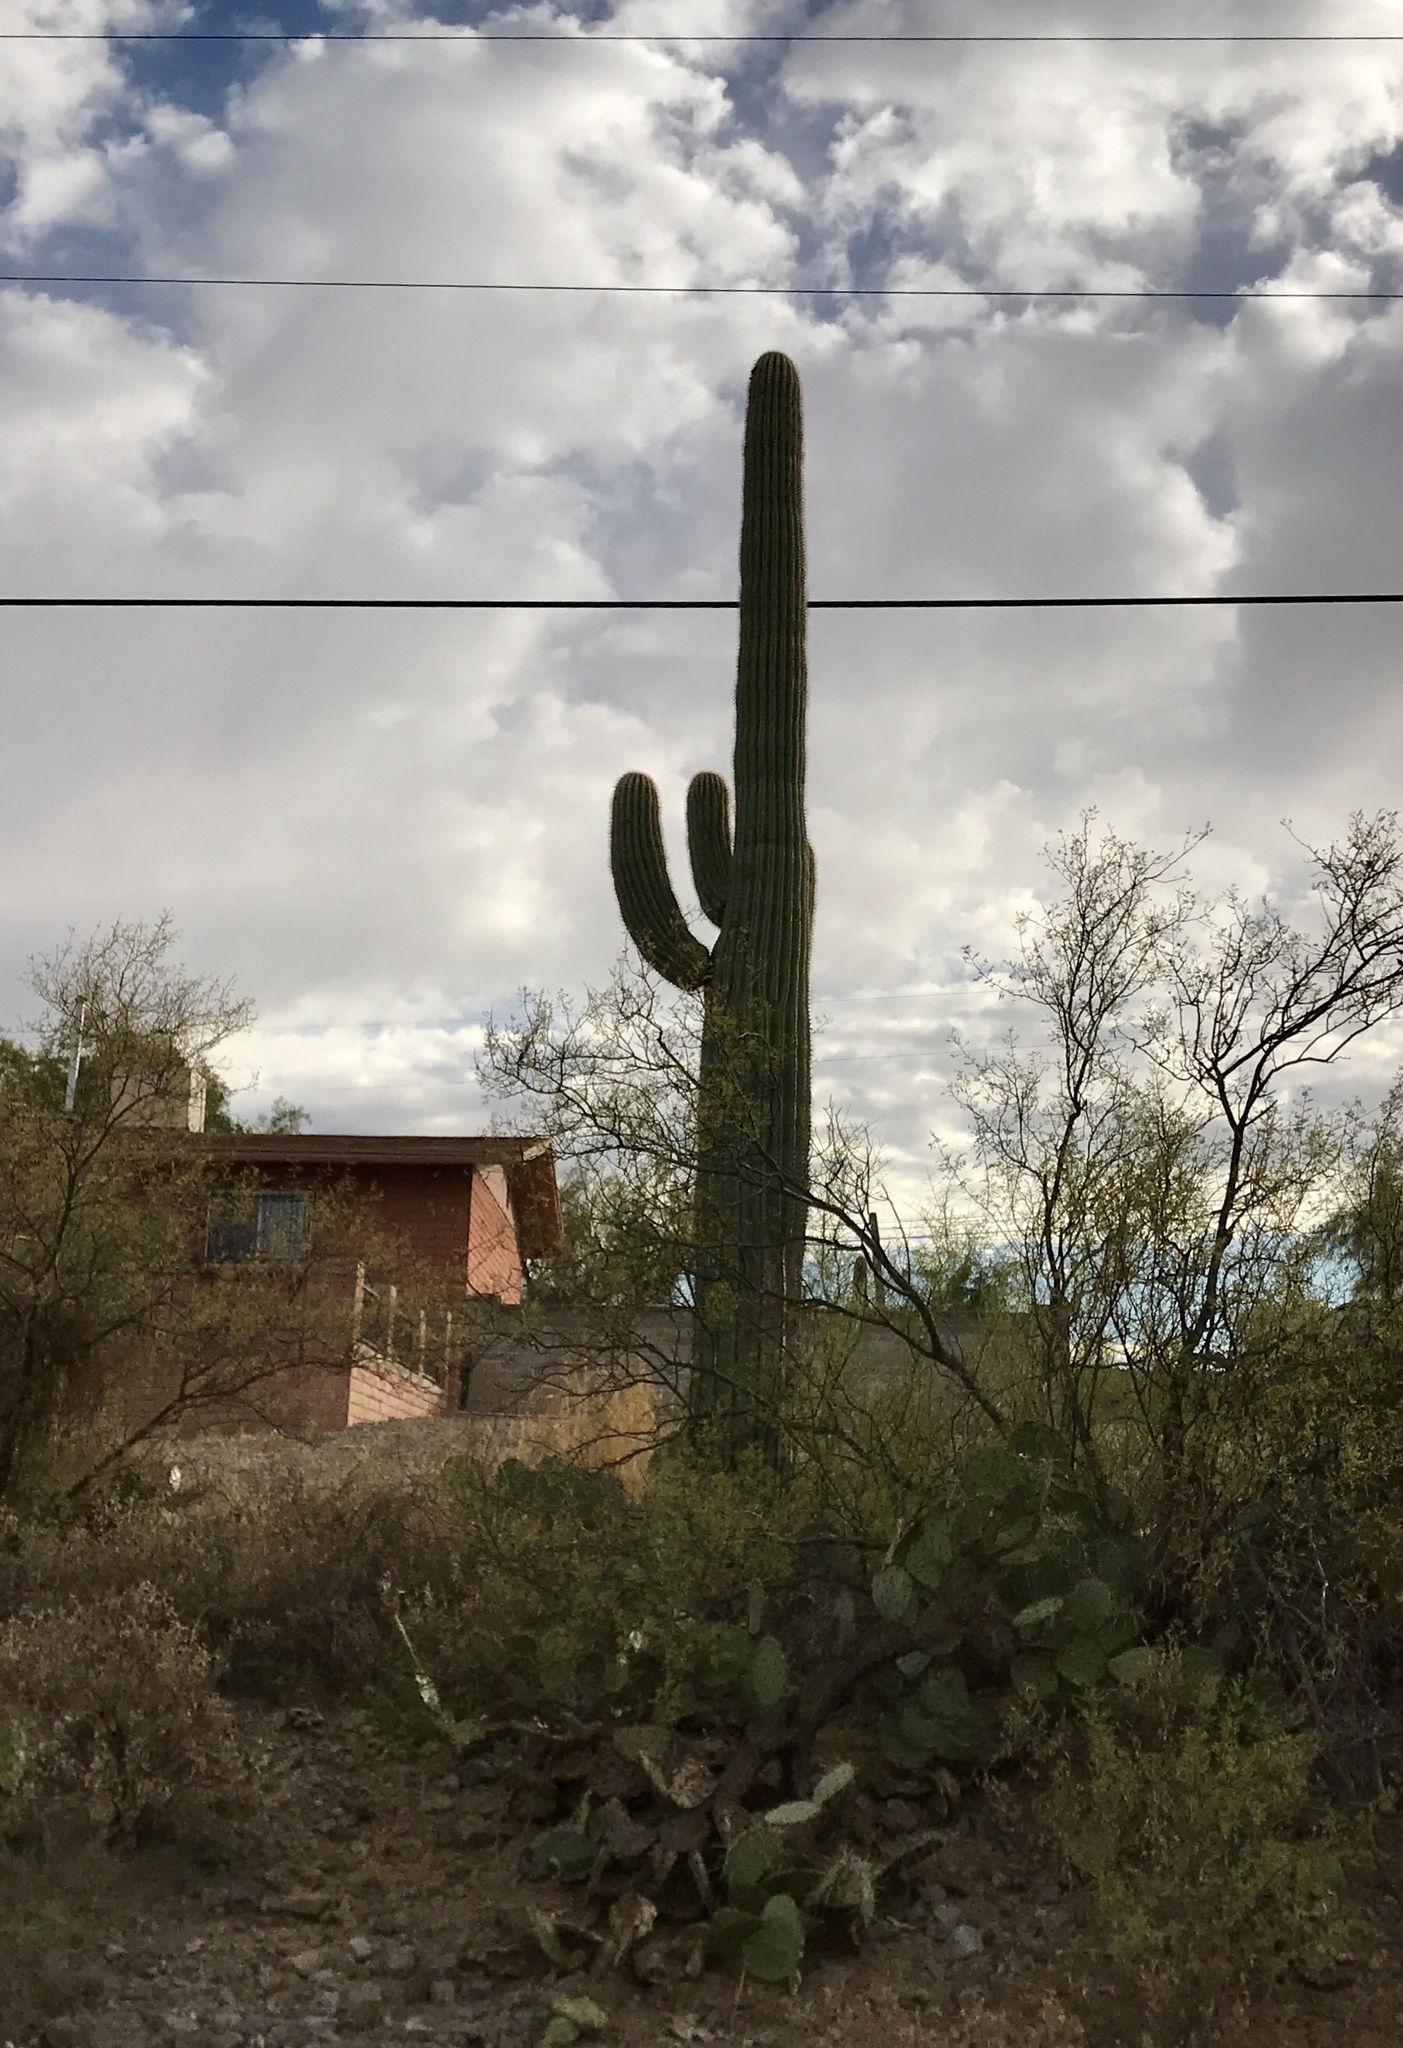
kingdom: Plantae
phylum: Tracheophyta
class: Magnoliopsida
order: Caryophyllales
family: Cactaceae
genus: Carnegiea
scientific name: Carnegiea gigantea
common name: Saguaro
